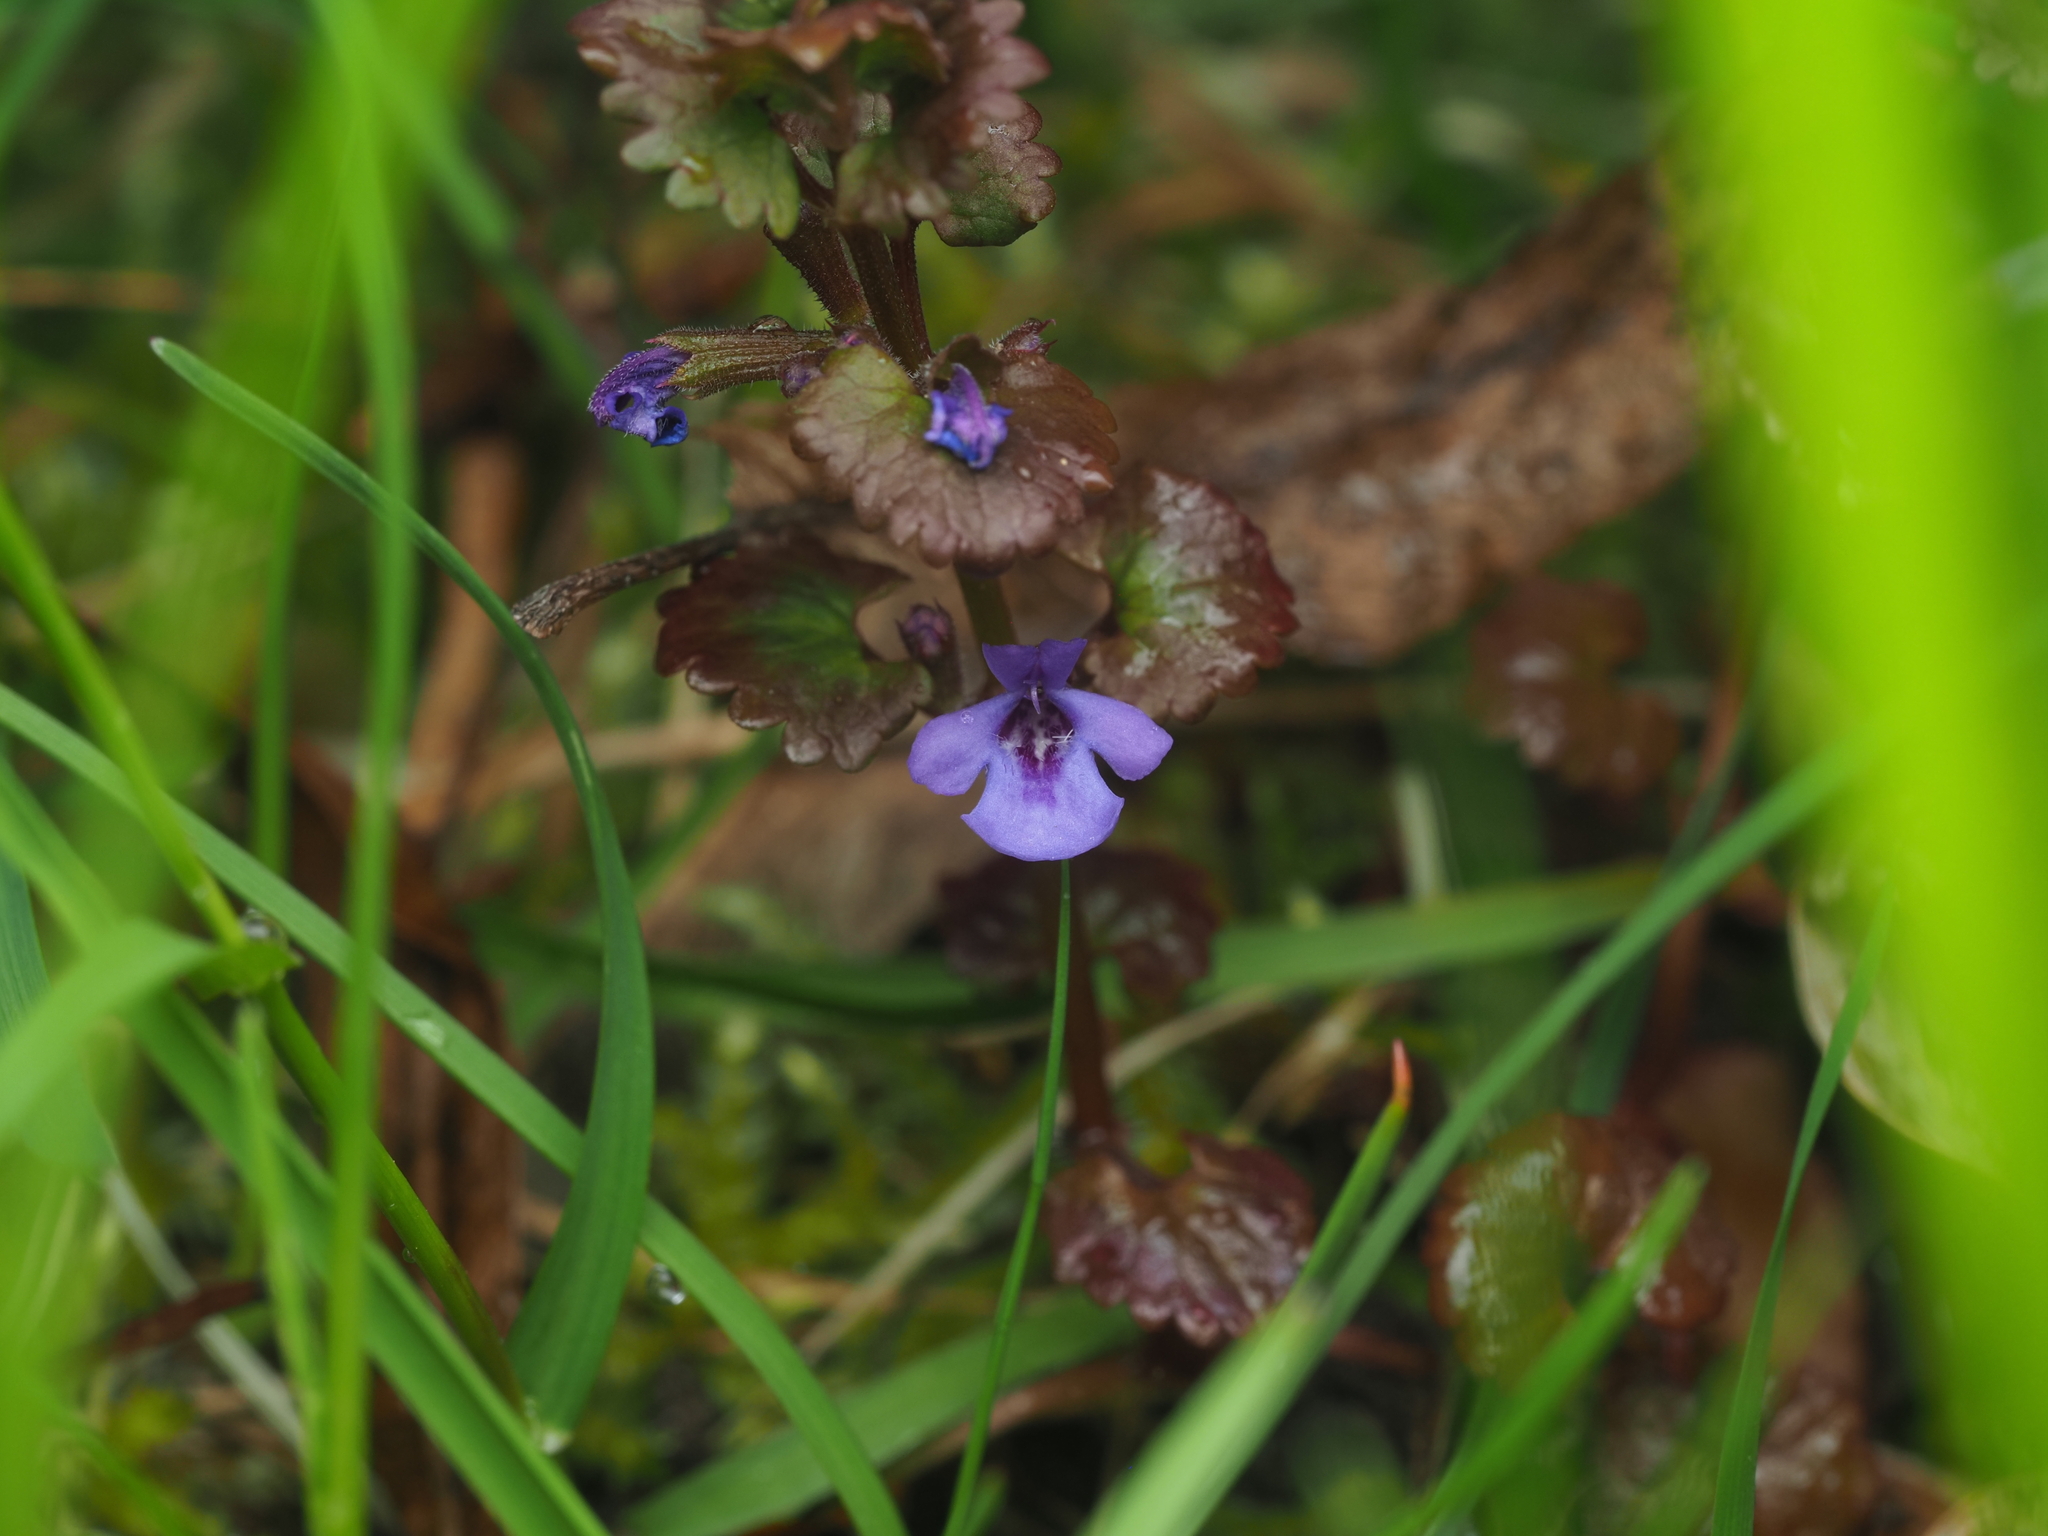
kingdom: Plantae
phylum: Tracheophyta
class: Magnoliopsida
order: Lamiales
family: Lamiaceae
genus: Glechoma
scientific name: Glechoma hederacea
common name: Ground ivy
